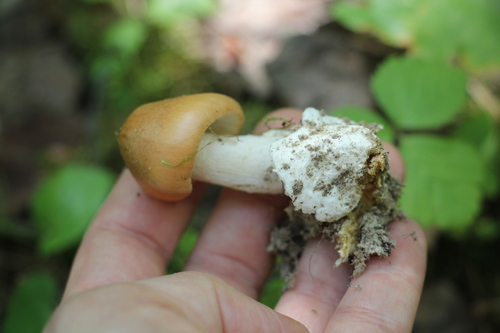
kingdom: Fungi
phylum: Basidiomycota
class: Agaricomycetes
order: Agaricales
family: Amanitaceae
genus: Amanita
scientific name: Amanita crocea
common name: Orange grisette
